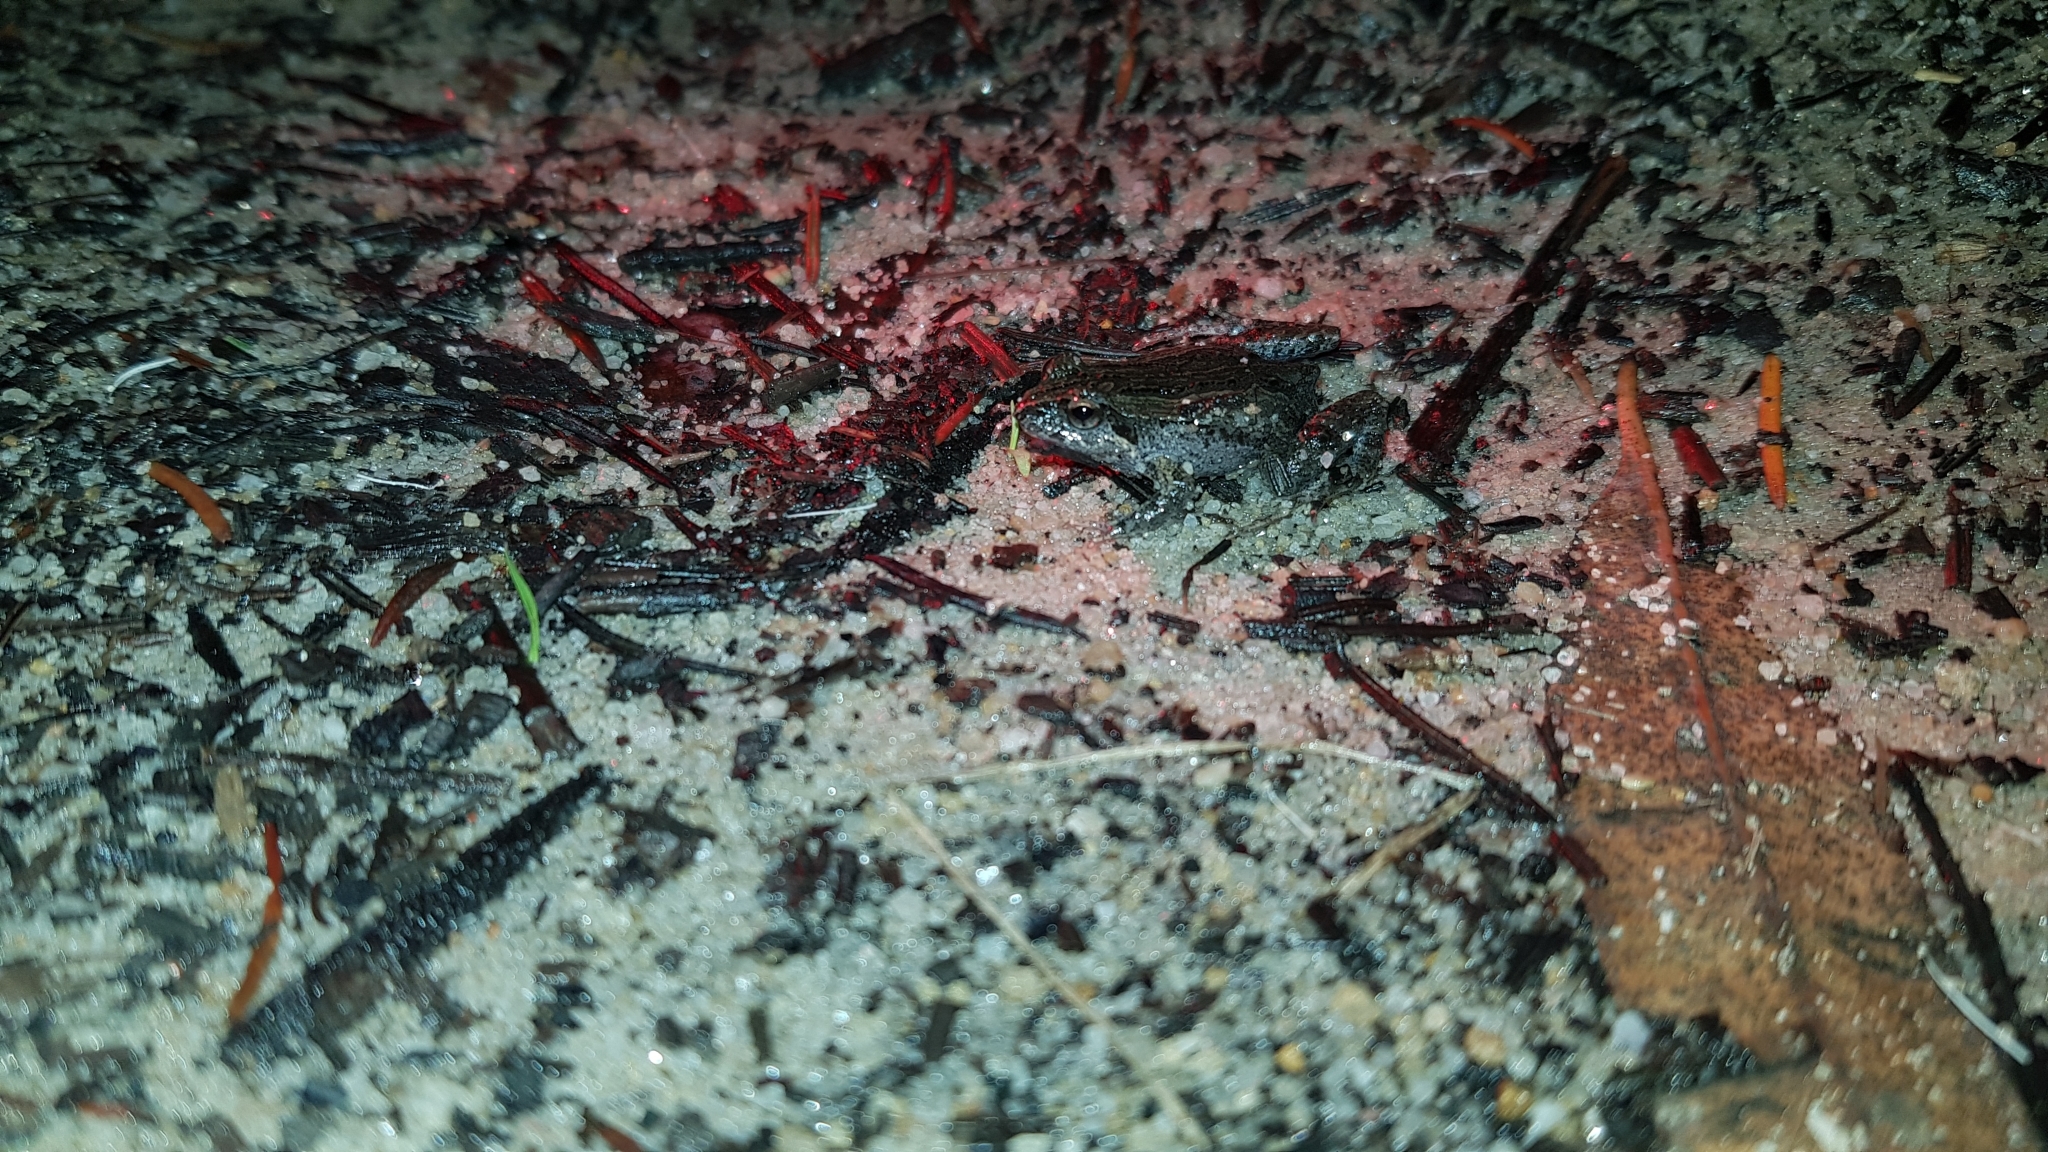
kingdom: Animalia
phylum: Chordata
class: Amphibia
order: Anura
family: Myobatrachidae
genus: Crinia
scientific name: Crinia signifera
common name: Brown froglet
